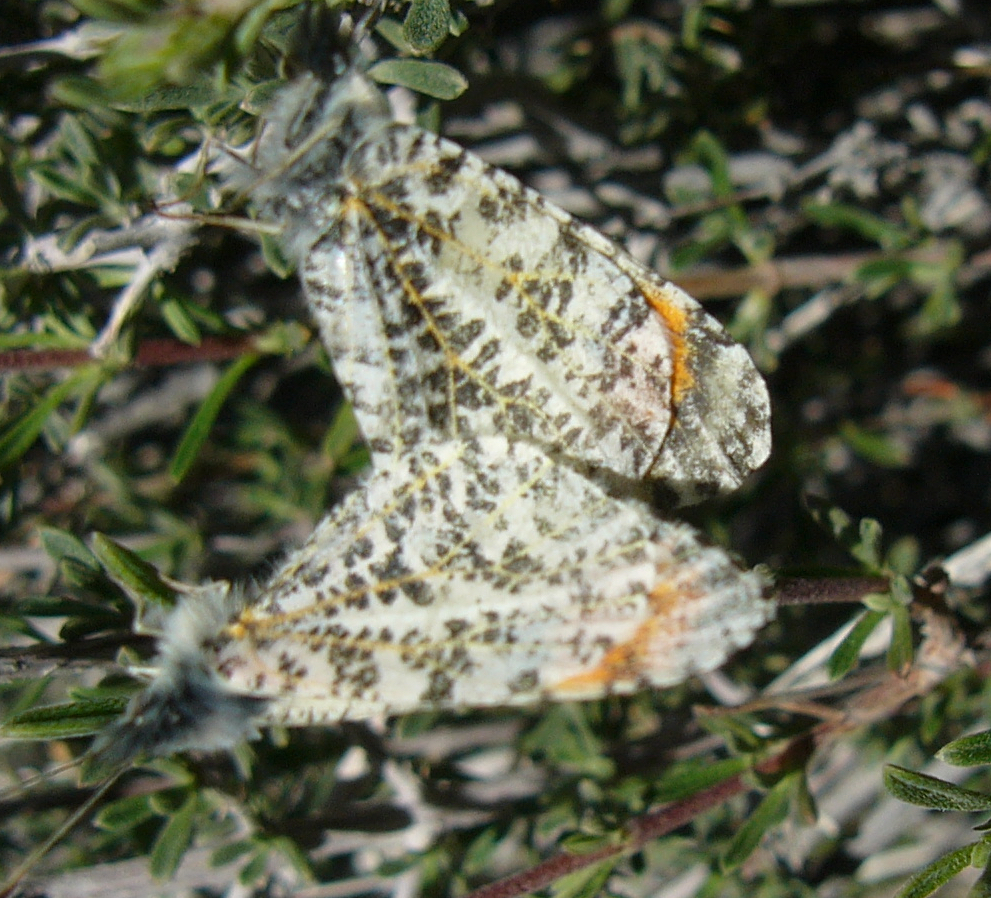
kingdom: Animalia
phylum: Arthropoda
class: Insecta
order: Lepidoptera
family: Pieridae
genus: Anthocharis
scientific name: Anthocharis thoosa
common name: Southwestern orangetip
